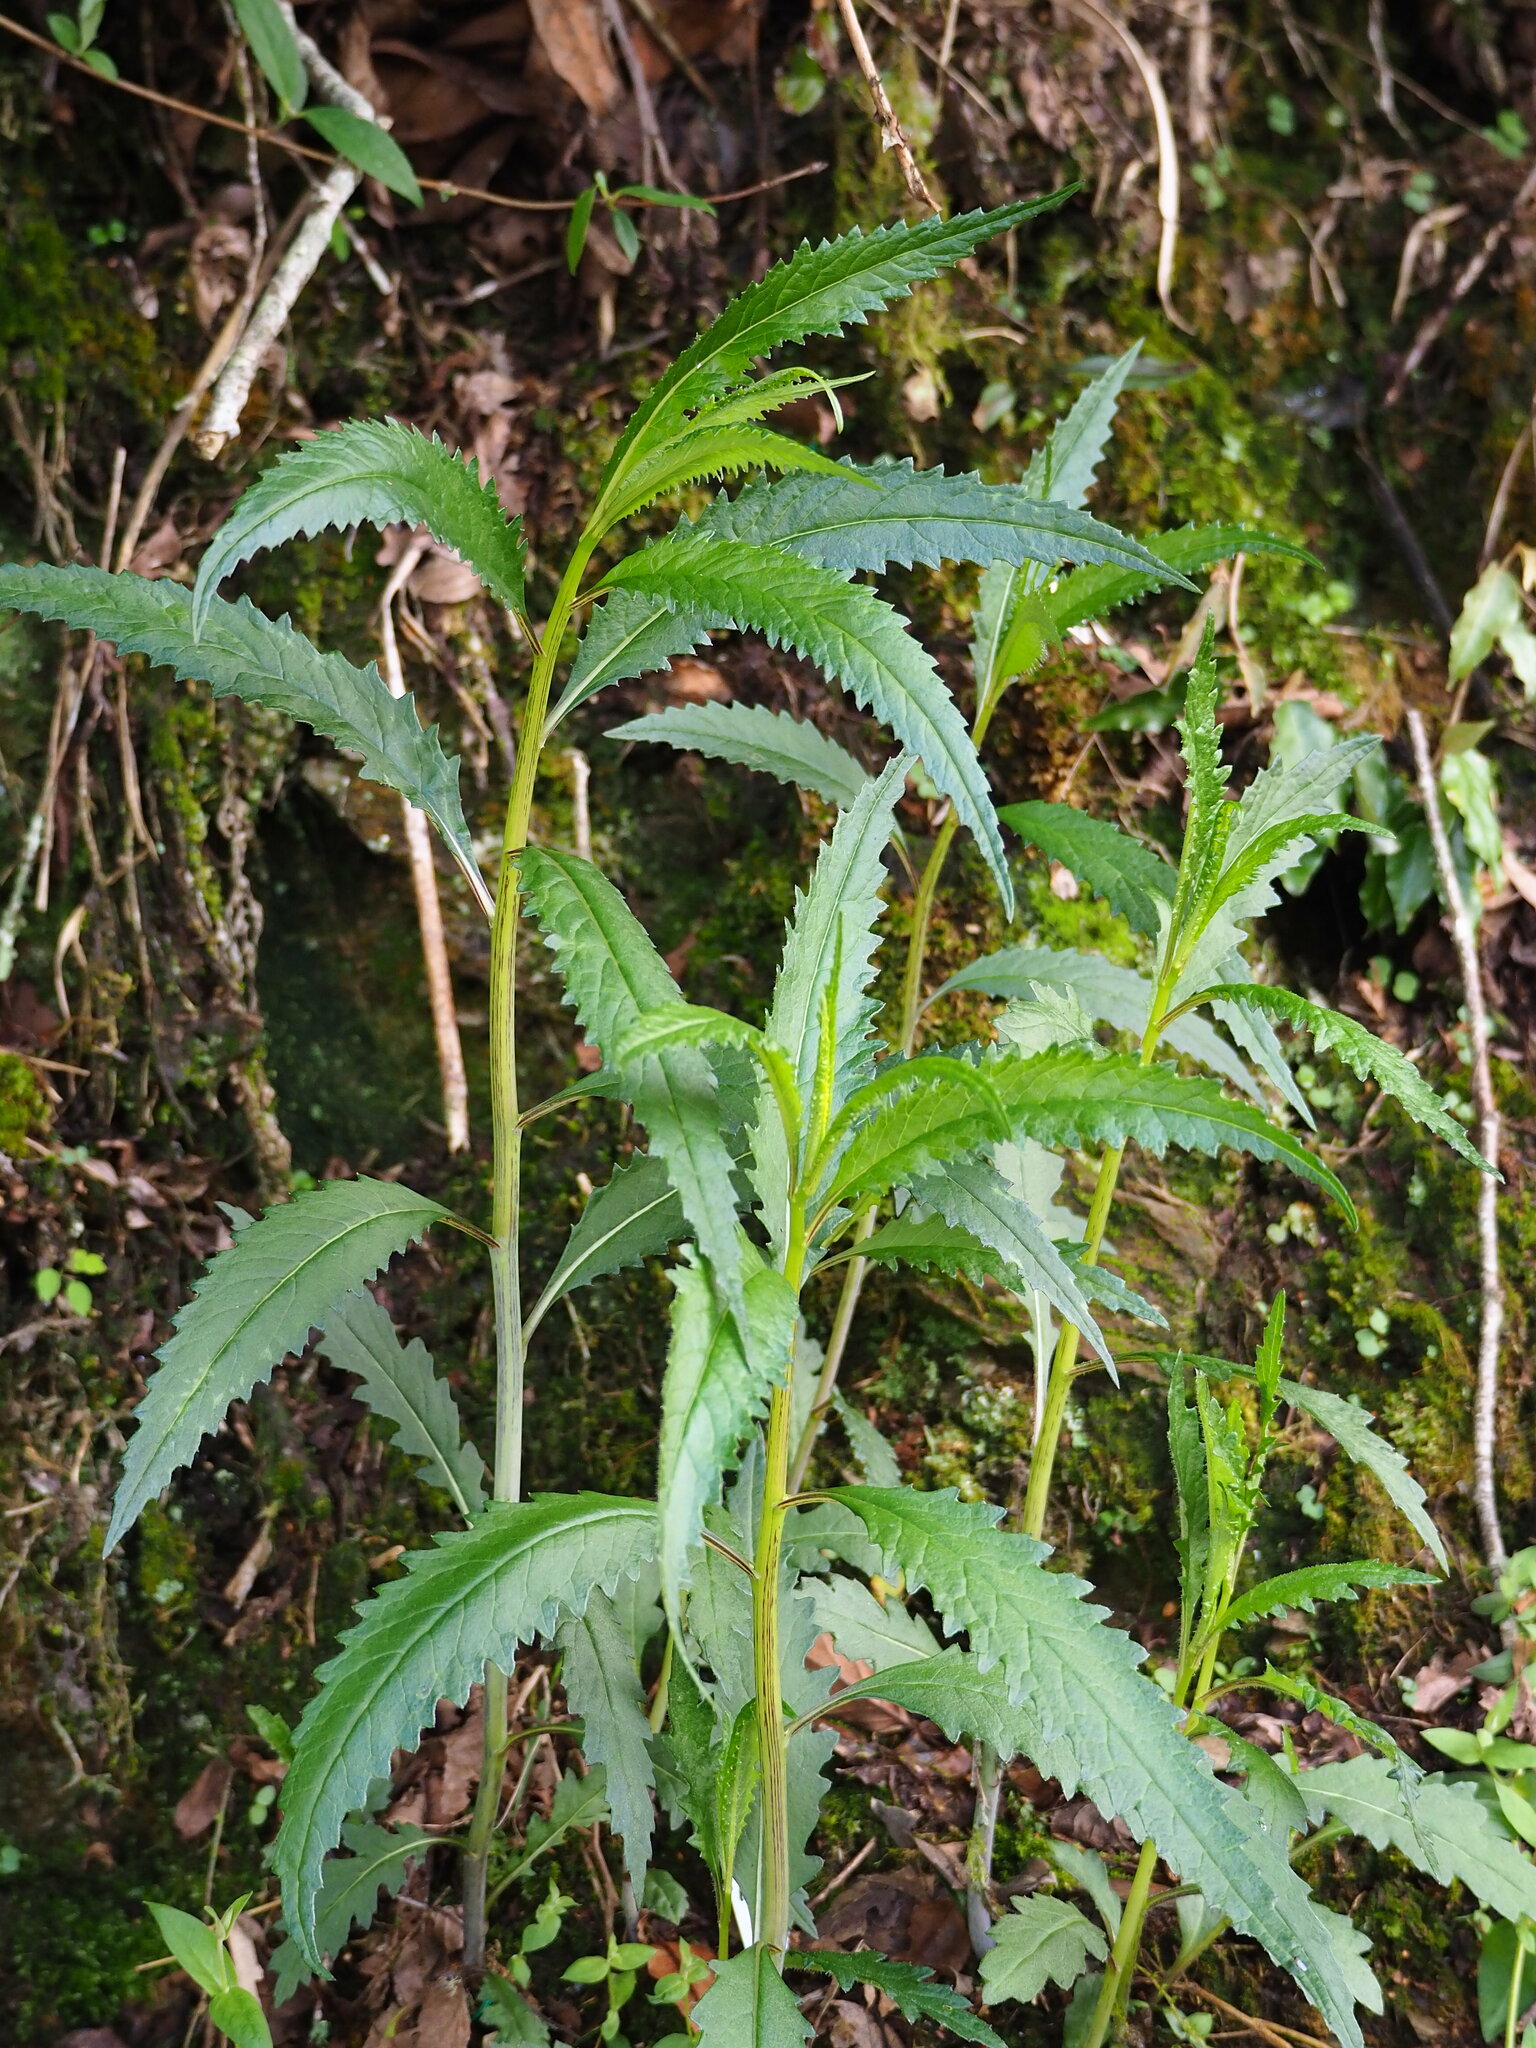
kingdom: Plantae
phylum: Tracheophyta
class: Magnoliopsida
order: Asterales
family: Asteraceae
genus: Senecio
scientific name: Senecio nemorensis
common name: Alpine ragwort
